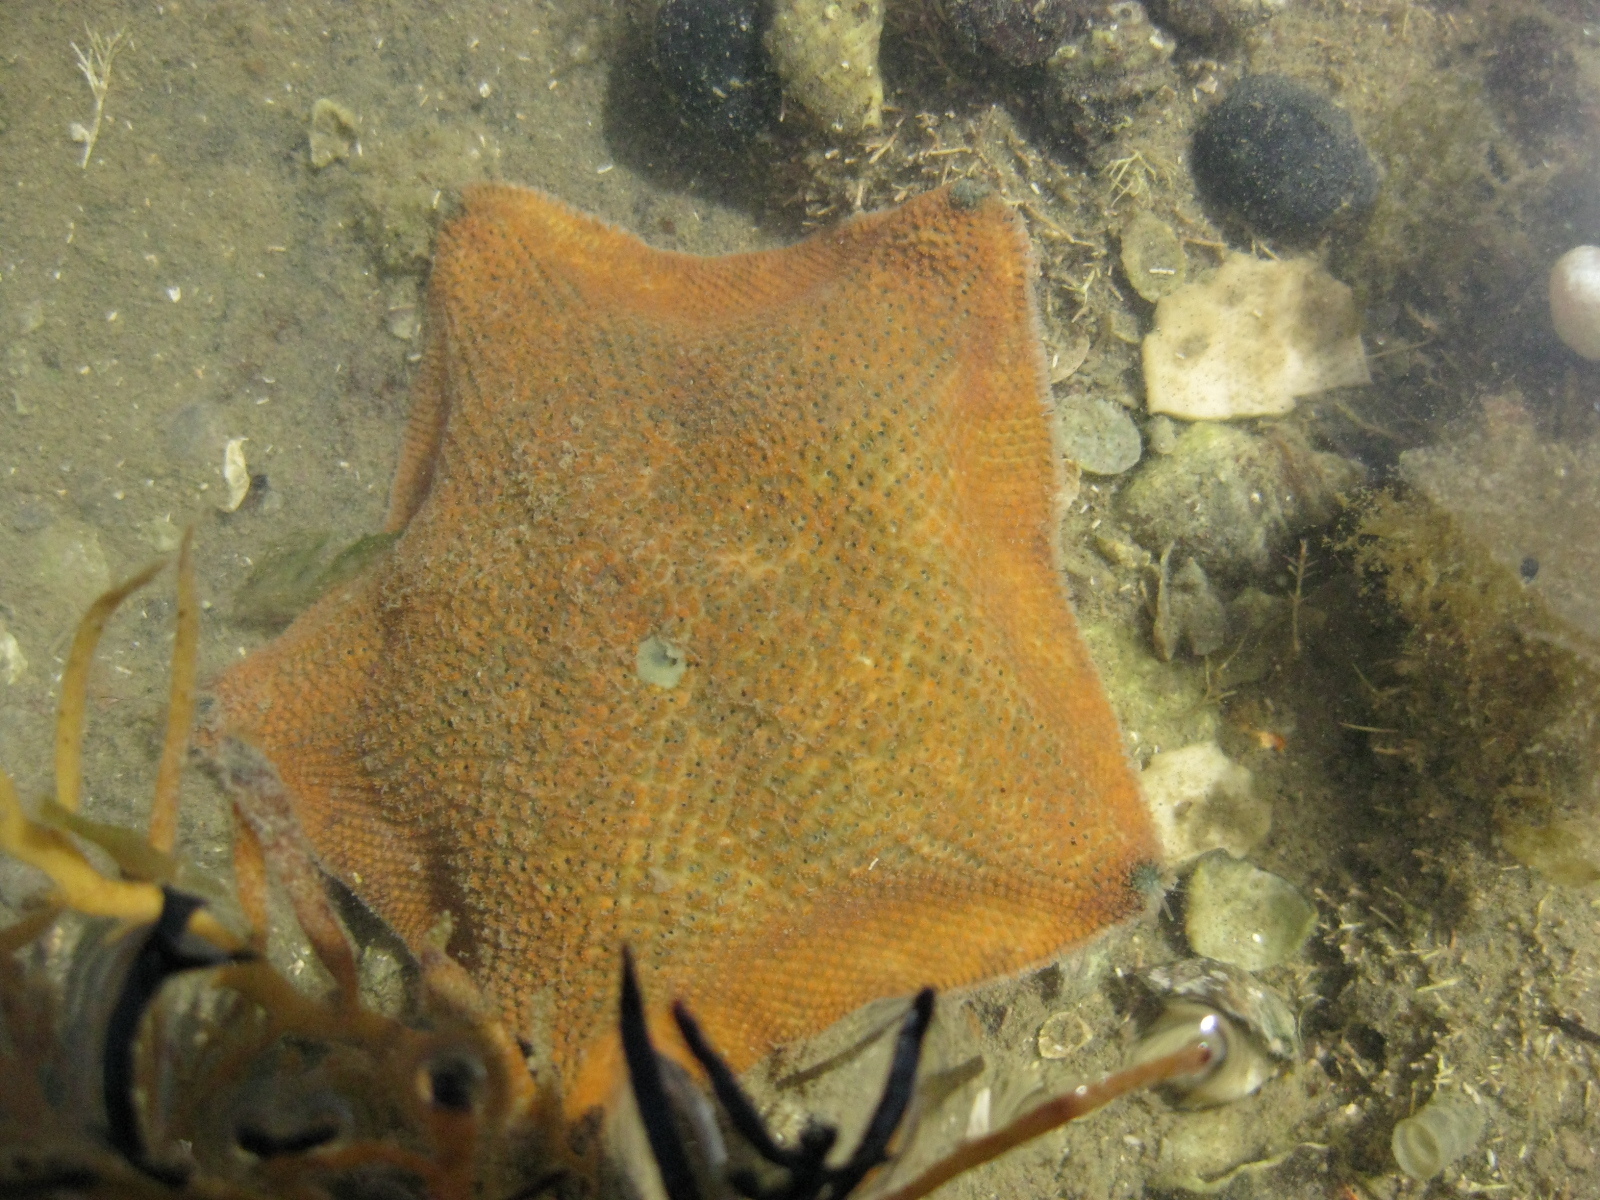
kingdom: Animalia
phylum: Echinodermata
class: Asteroidea
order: Valvatida
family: Asterinidae
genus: Patiriella
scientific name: Patiriella regularis
